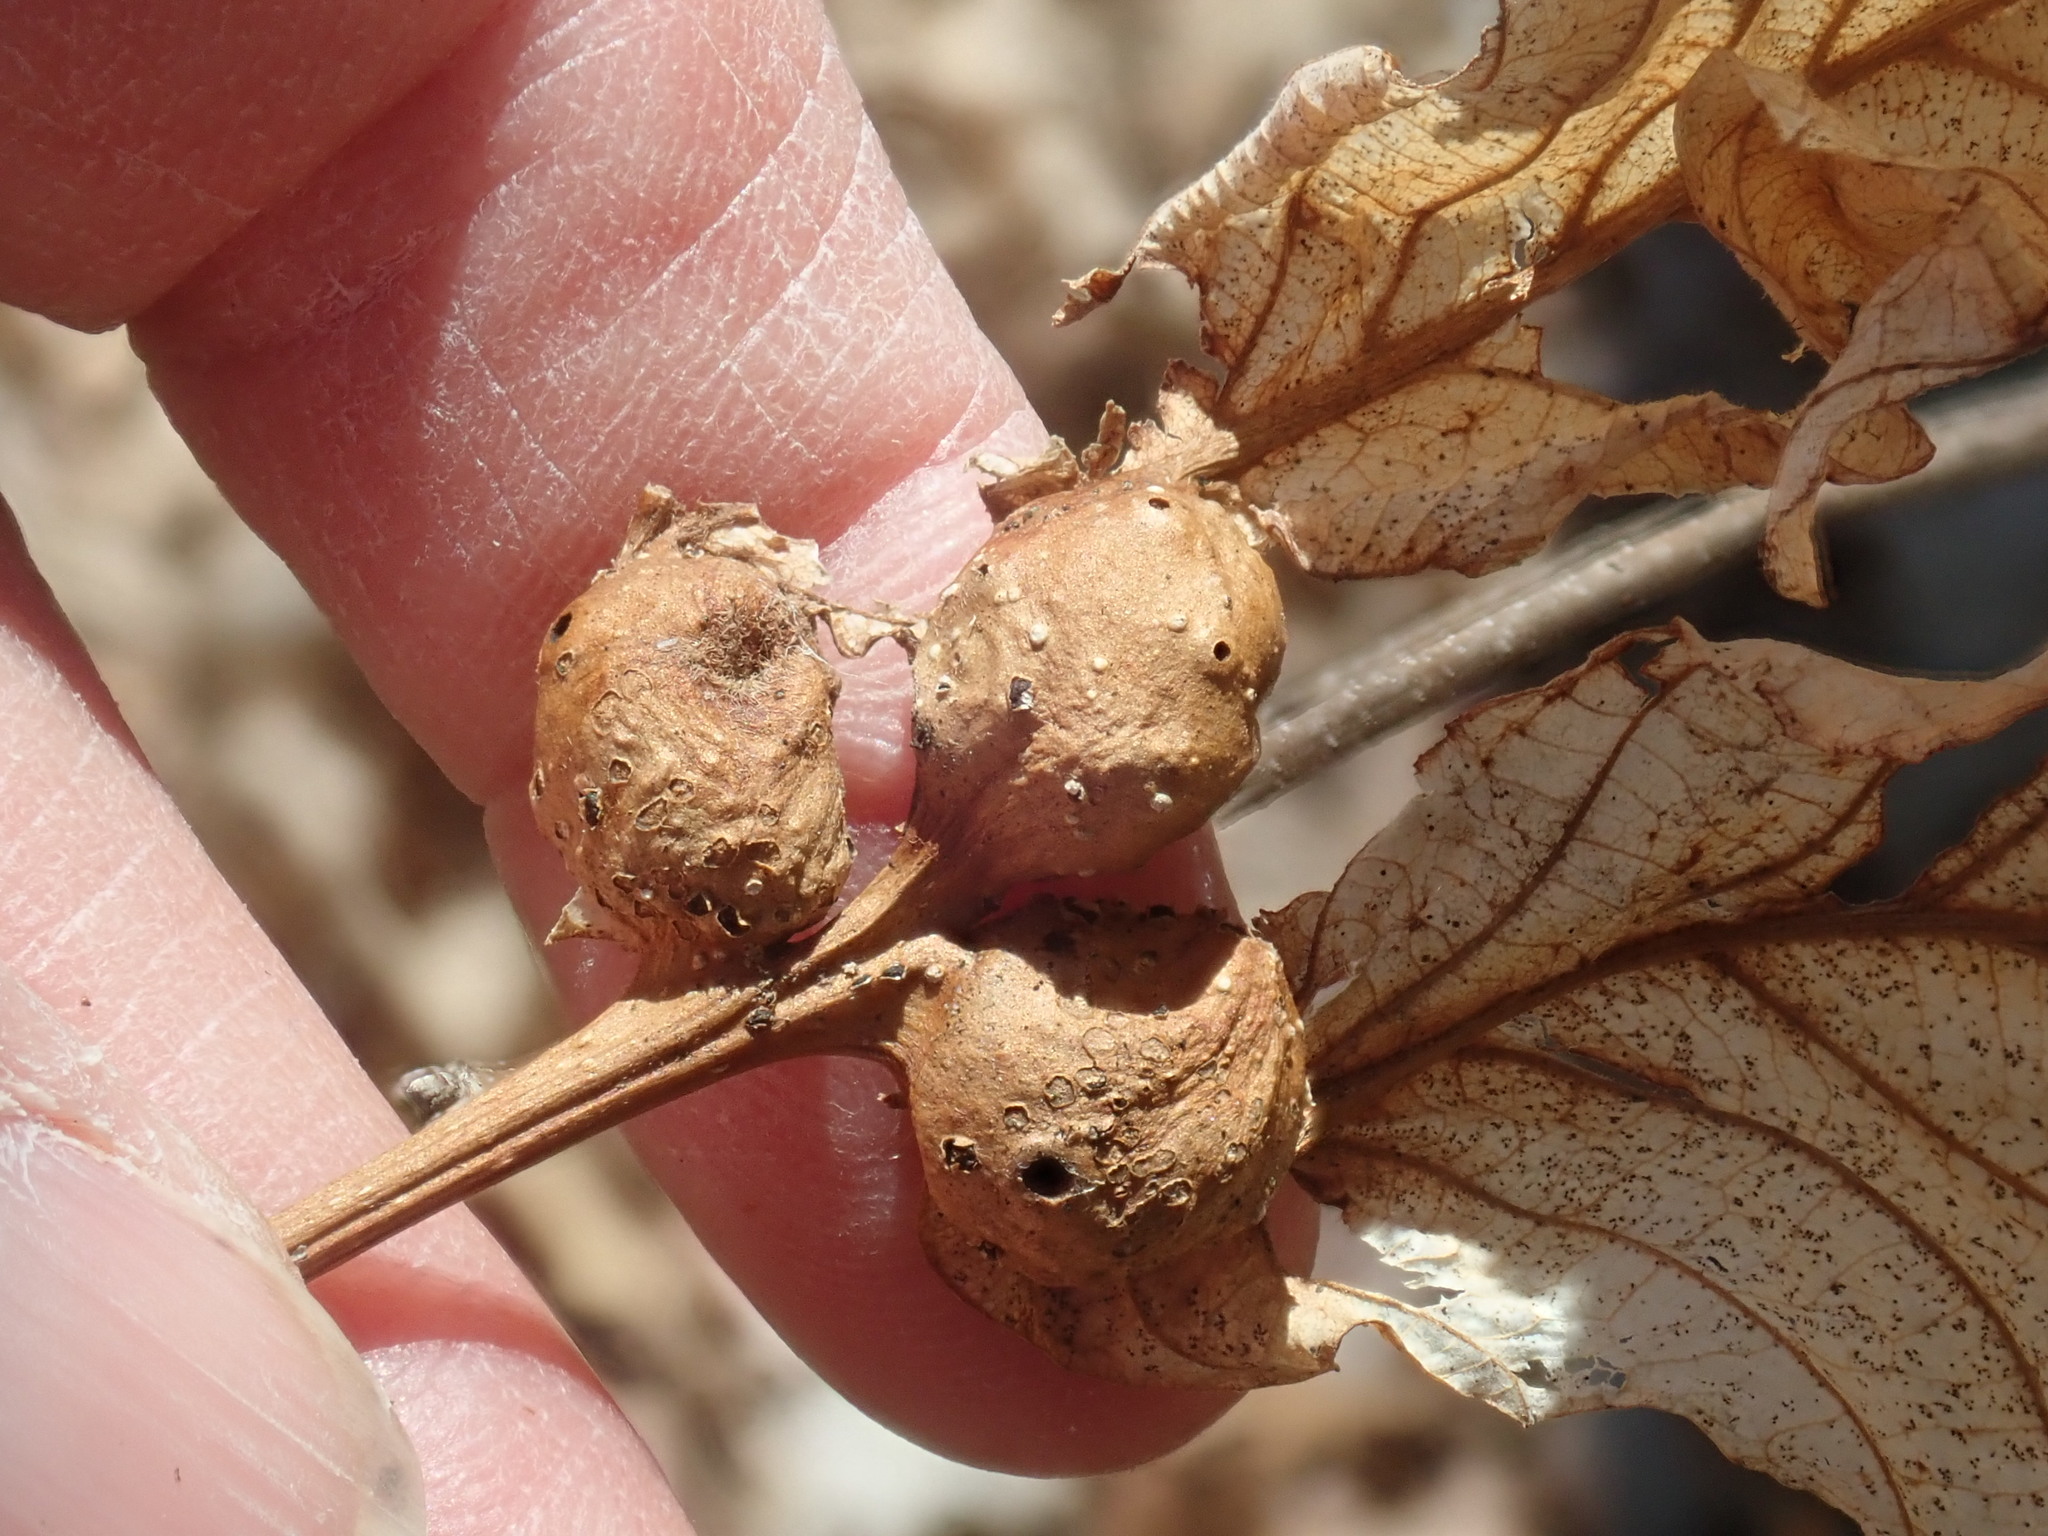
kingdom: Animalia
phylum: Arthropoda
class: Insecta
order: Hymenoptera
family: Cynipidae
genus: Andricus
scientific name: Andricus
